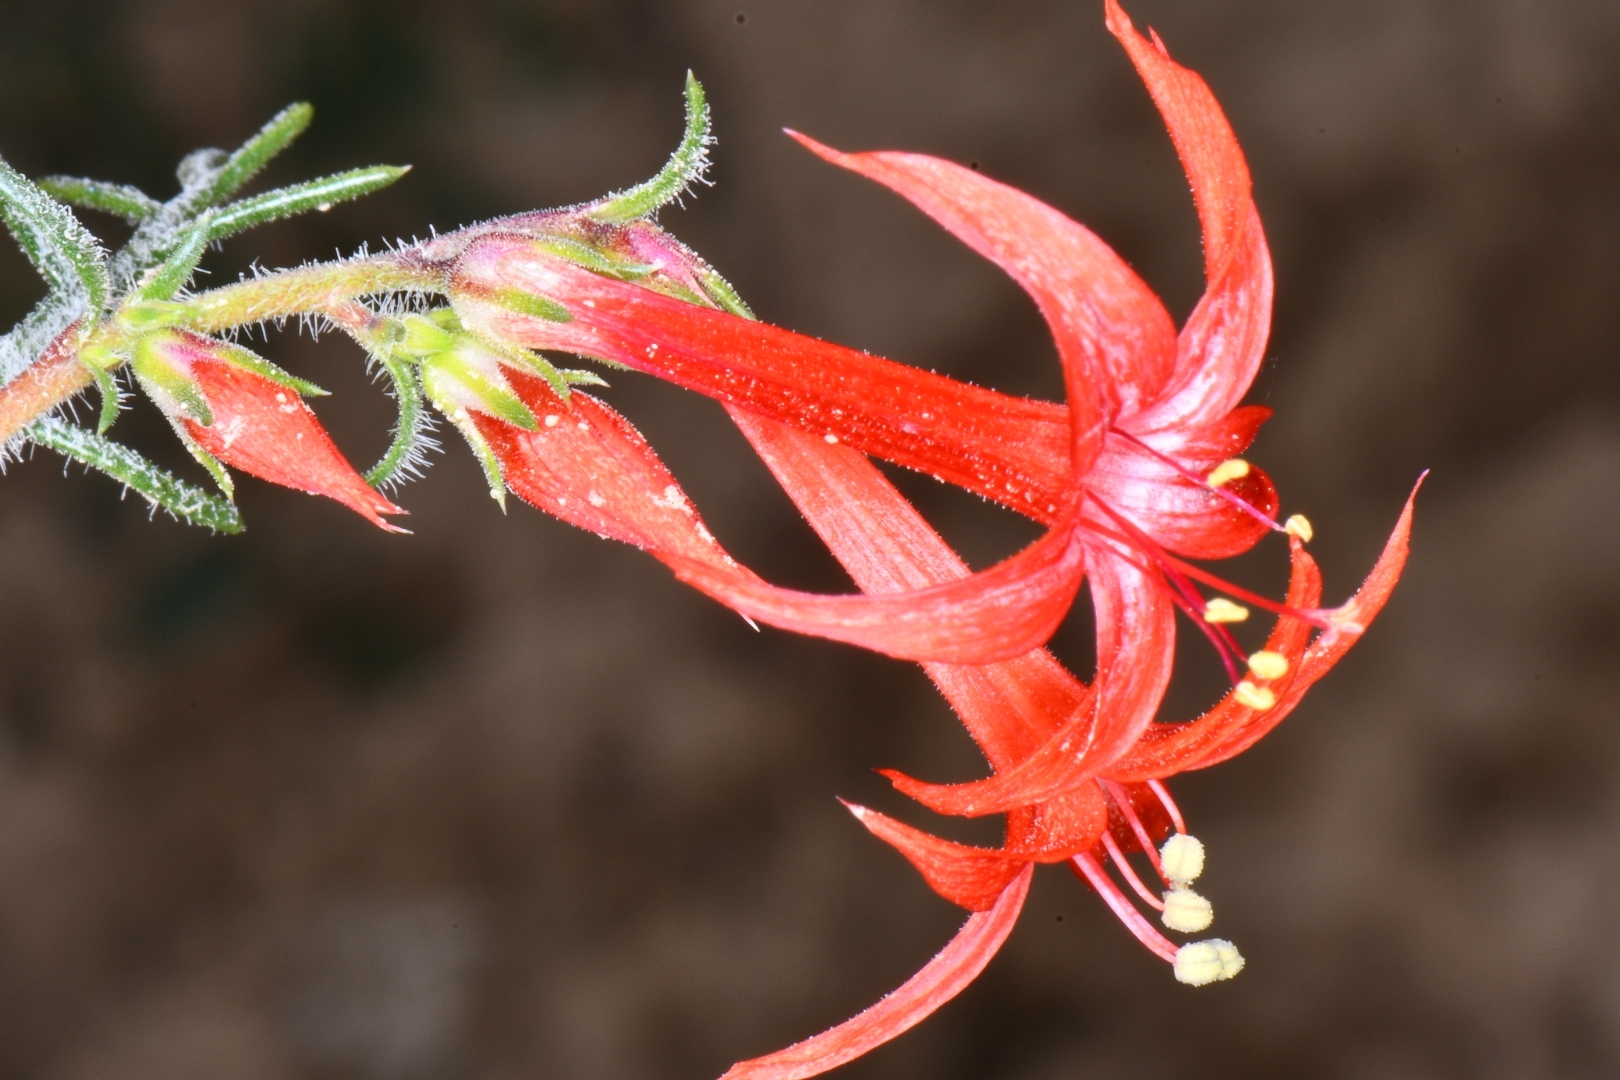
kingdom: Plantae
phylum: Tracheophyta
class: Magnoliopsida
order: Ericales
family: Polemoniaceae
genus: Ipomopsis
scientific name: Ipomopsis aggregata
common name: Scarlet gilia
